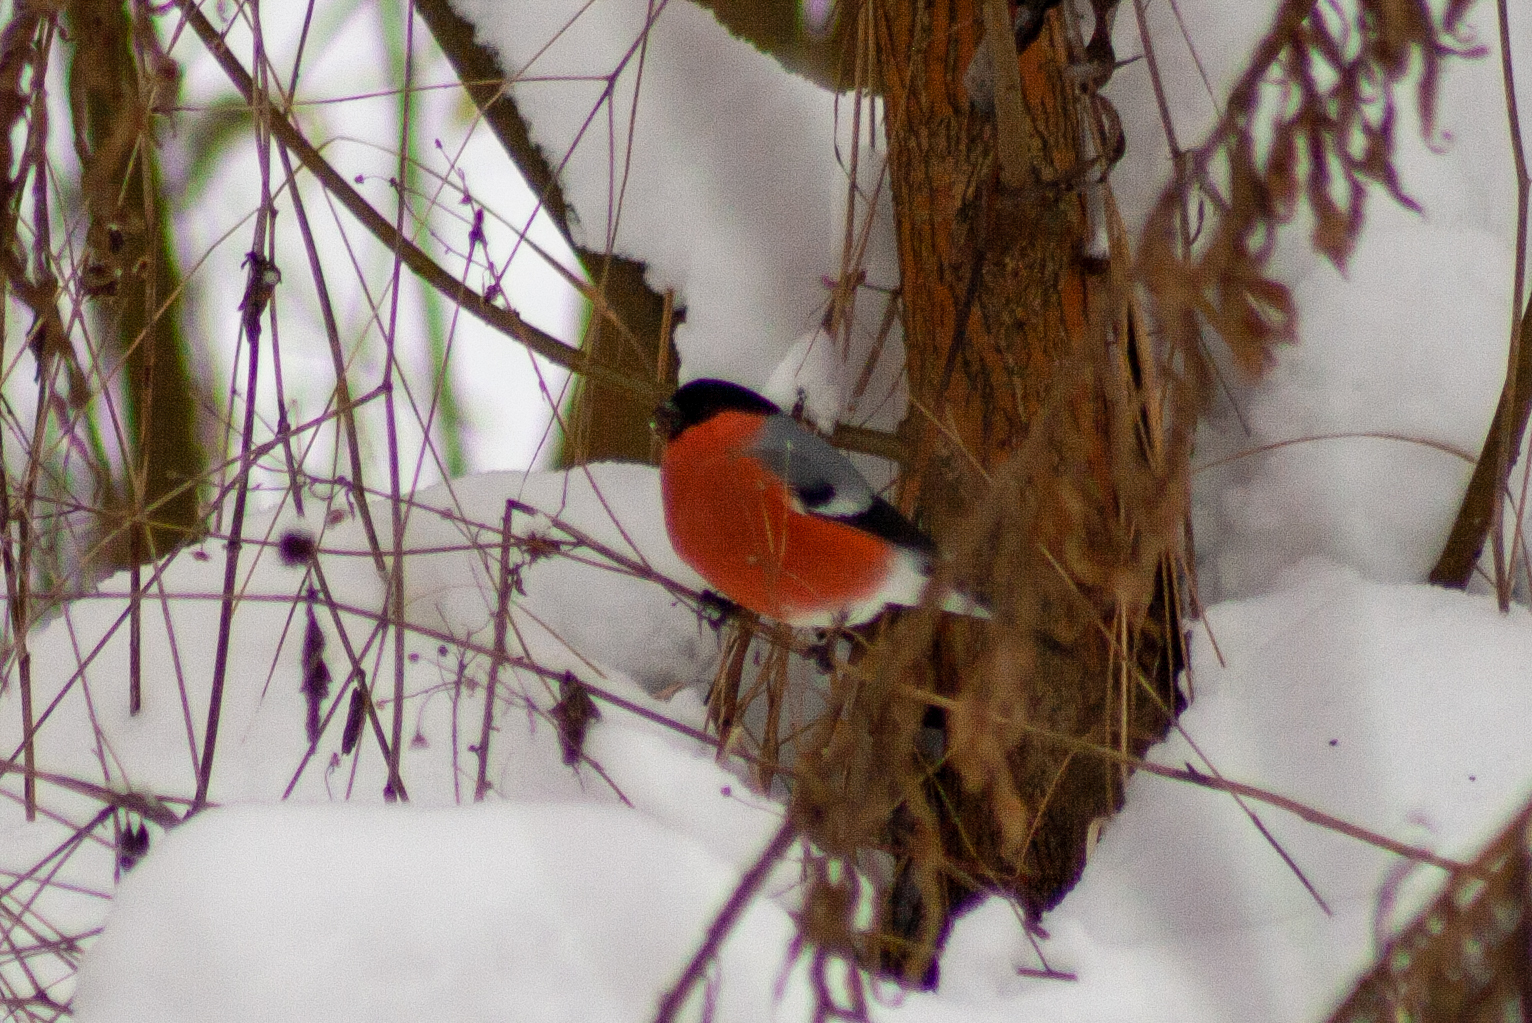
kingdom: Animalia
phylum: Chordata
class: Aves
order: Passeriformes
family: Fringillidae
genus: Pyrrhula
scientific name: Pyrrhula pyrrhula
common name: Eurasian bullfinch
